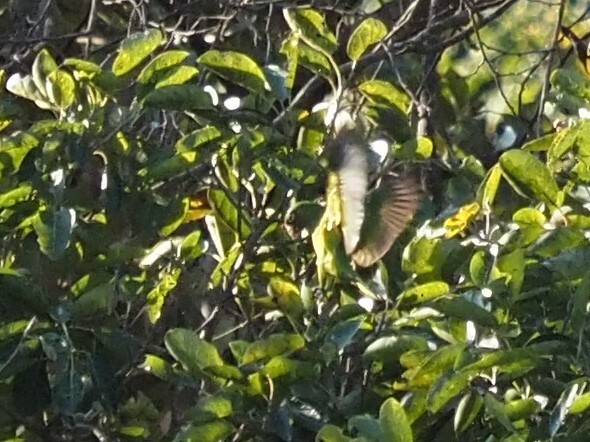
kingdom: Animalia
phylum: Chordata
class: Aves
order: Psittaciformes
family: Psittacidae
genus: Aratinga
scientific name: Aratinga canicularis
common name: Orange-fronted parakeet
